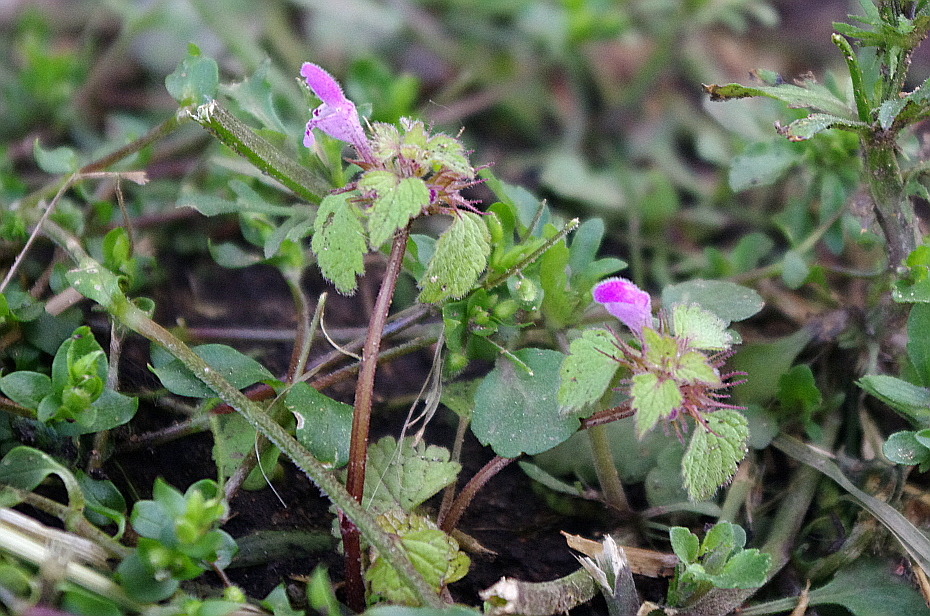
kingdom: Plantae
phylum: Tracheophyta
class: Magnoliopsida
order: Lamiales
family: Lamiaceae
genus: Lamium
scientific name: Lamium purpureum
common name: Red dead-nettle
